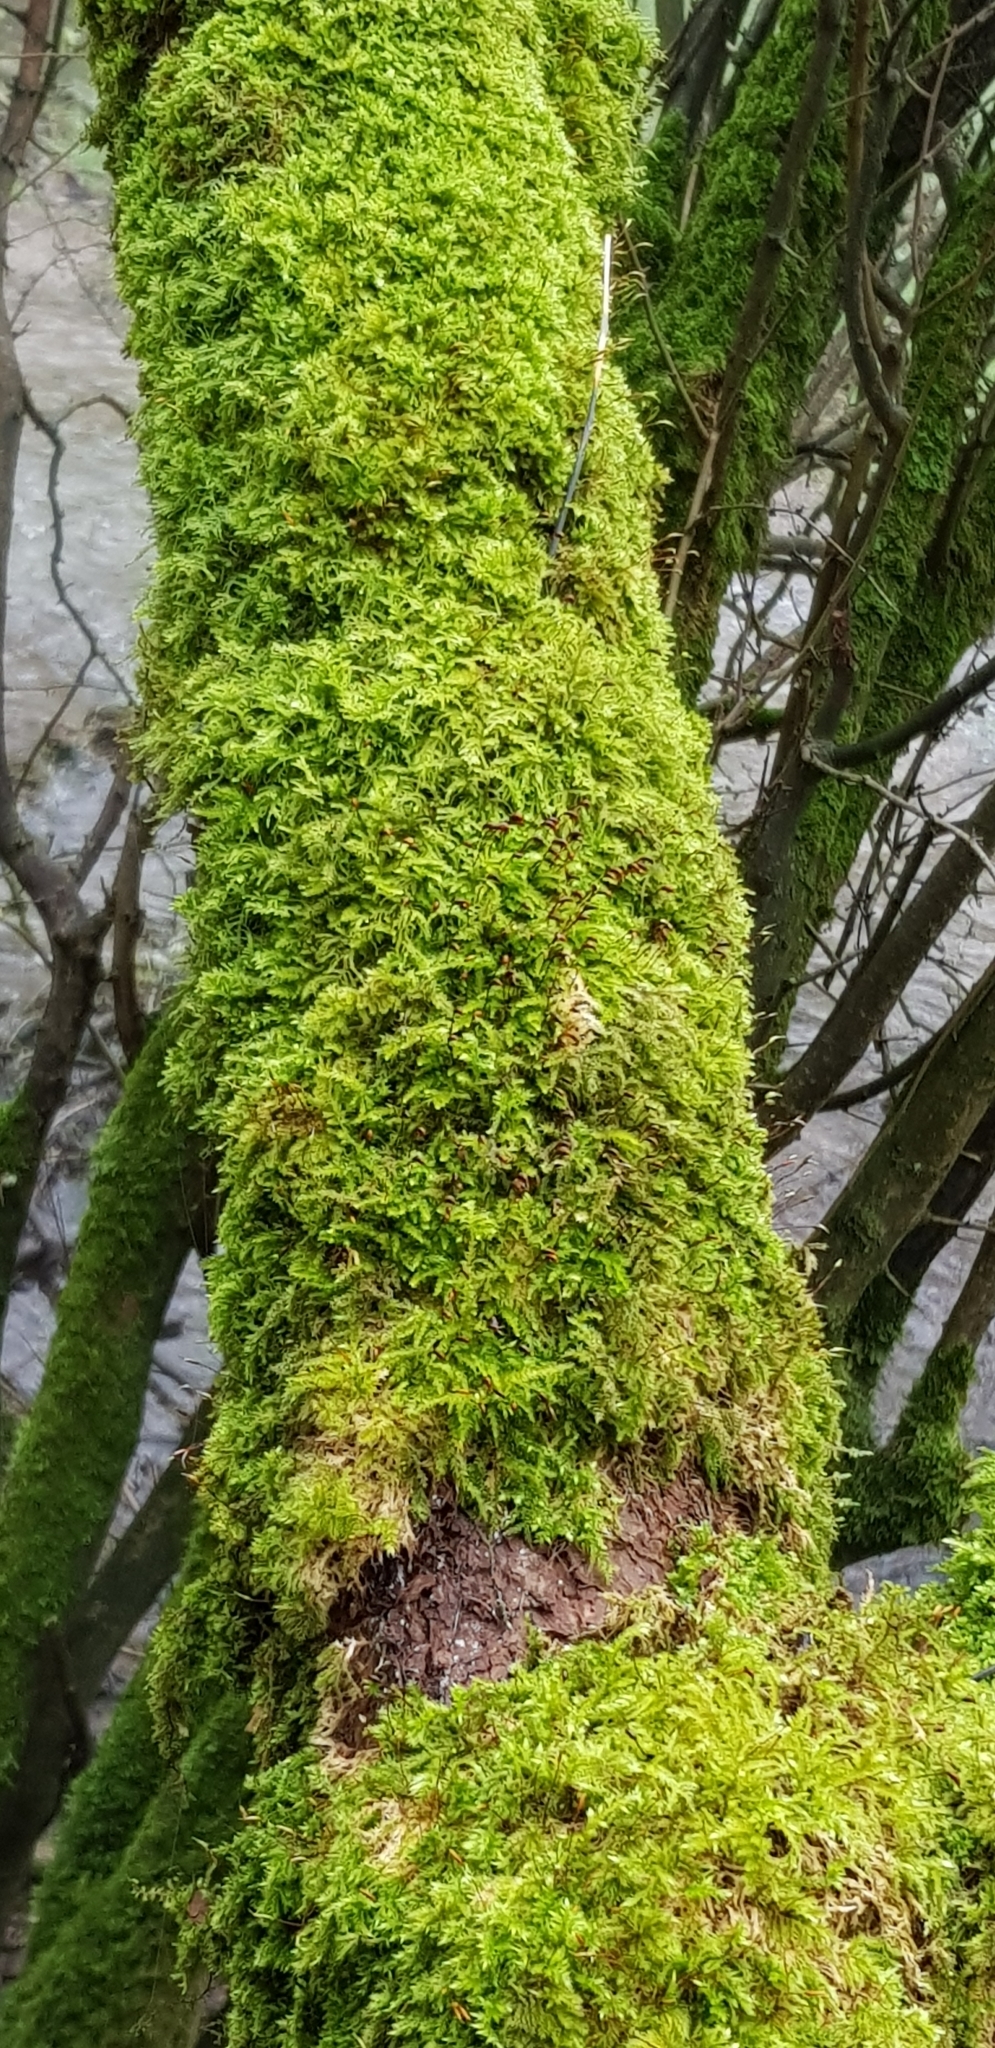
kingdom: Plantae
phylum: Bryophyta
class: Bryopsida
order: Hypnales
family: Brachytheciaceae
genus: Brachythecium
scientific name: Brachythecium rutabulum
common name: Rough-stalked feather-moss
